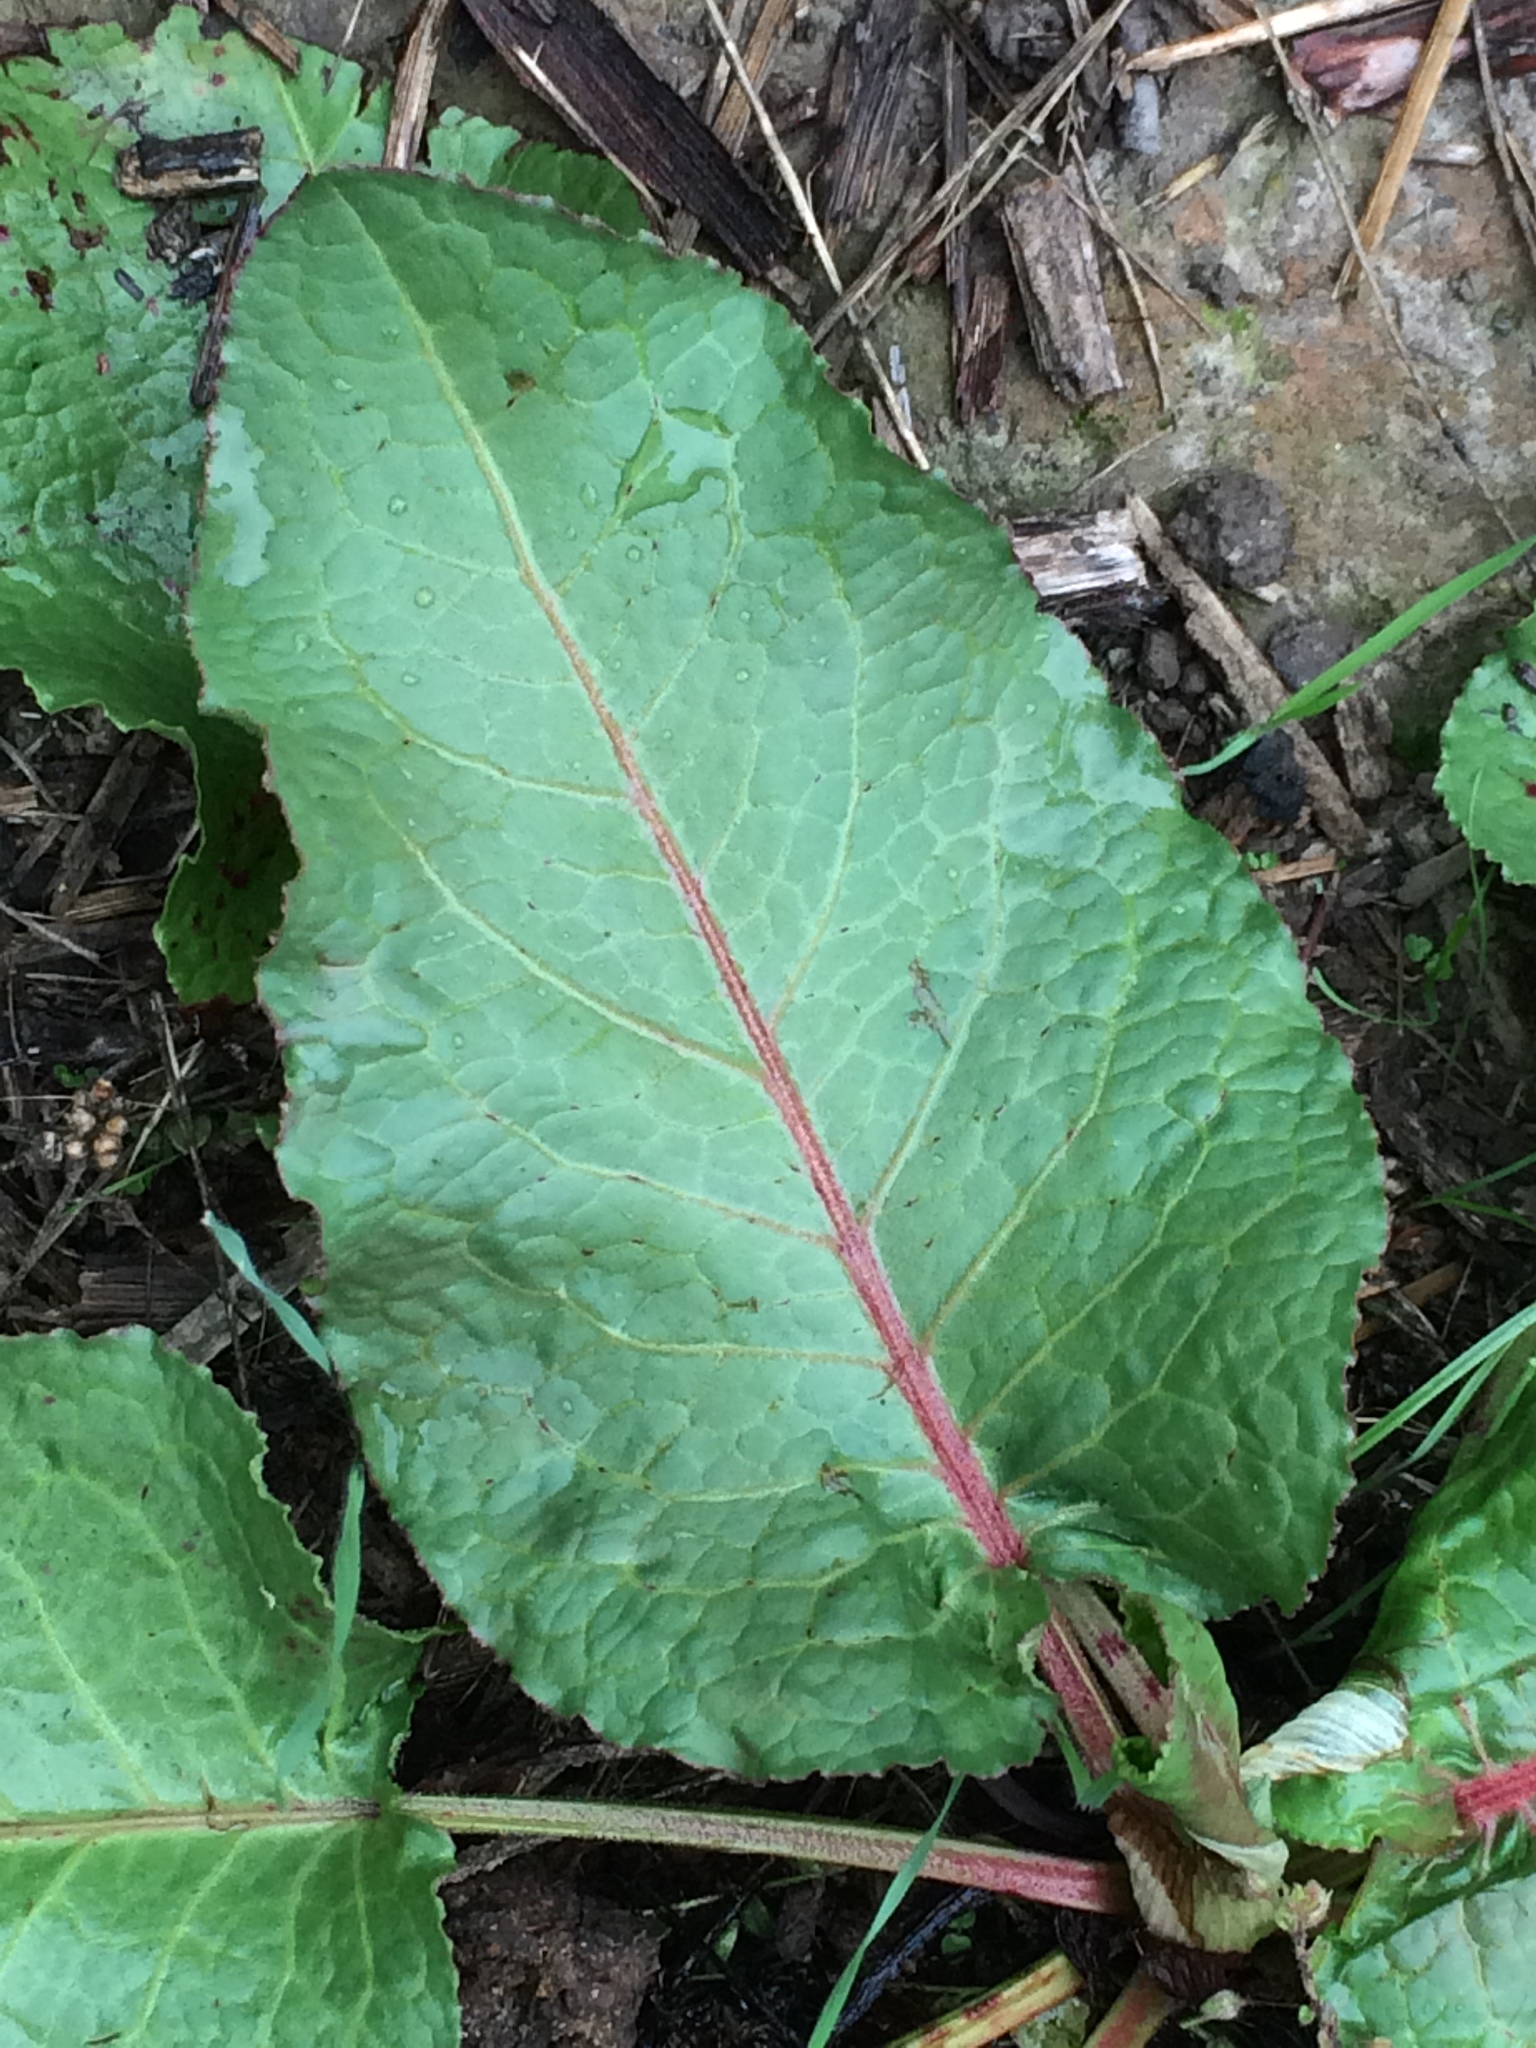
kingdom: Plantae
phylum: Tracheophyta
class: Magnoliopsida
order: Caryophyllales
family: Polygonaceae
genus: Rumex
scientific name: Rumex obtusifolius
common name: Bitter dock
